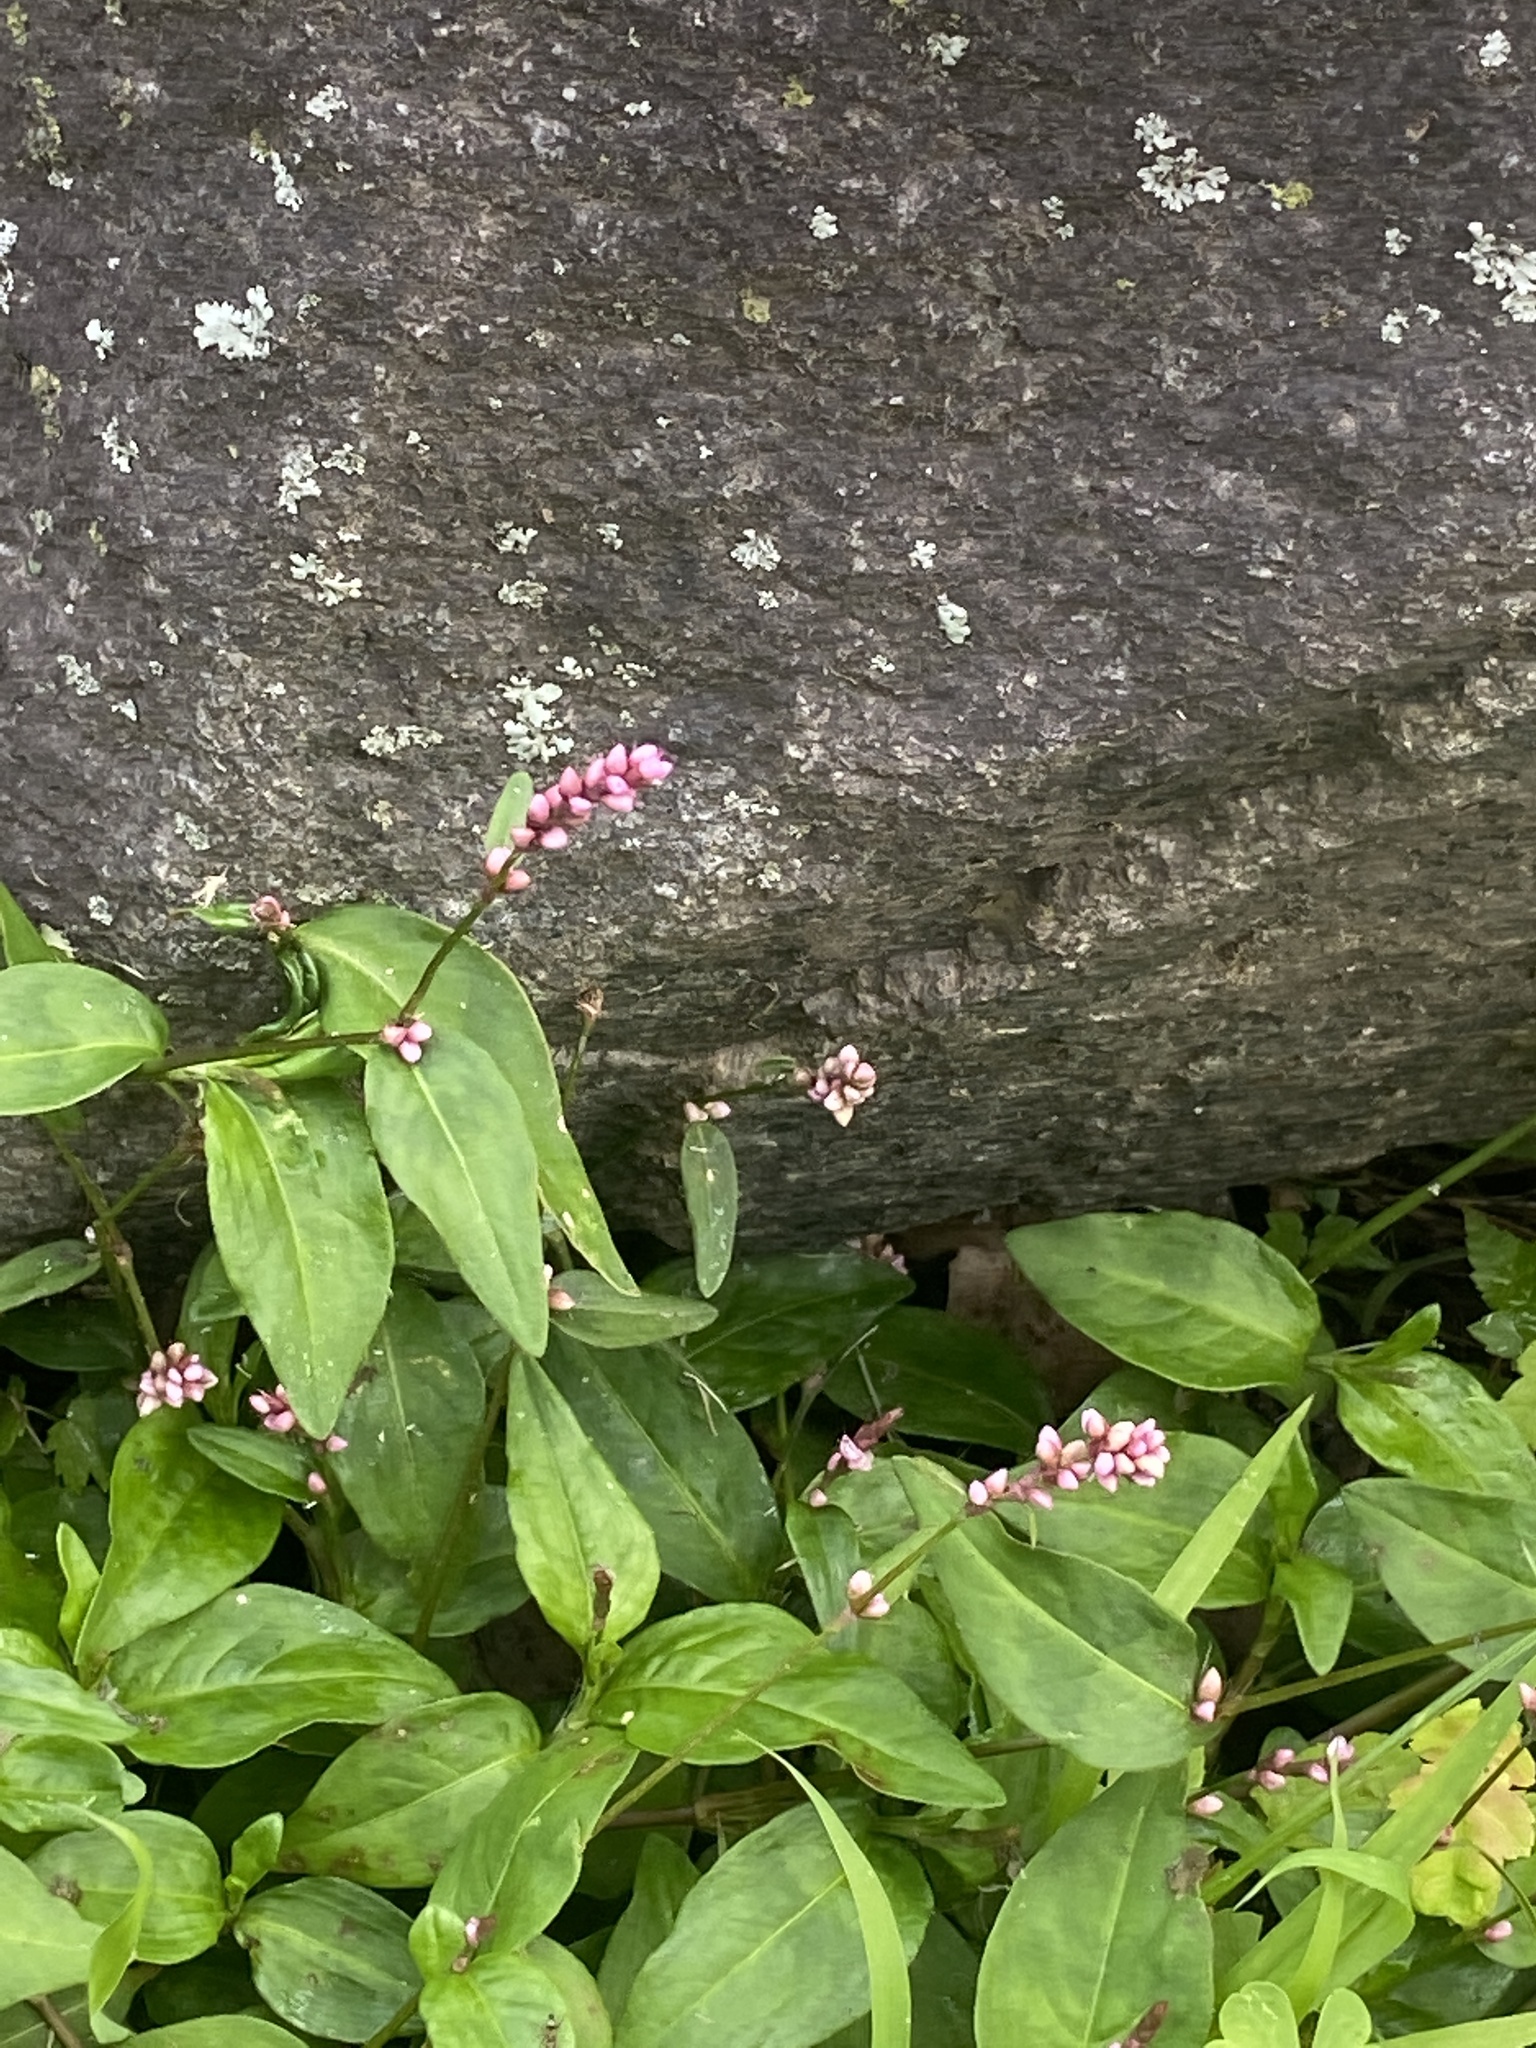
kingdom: Plantae
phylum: Tracheophyta
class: Magnoliopsida
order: Caryophyllales
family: Polygonaceae
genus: Persicaria
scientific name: Persicaria longiseta
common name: Bristly lady's-thumb
